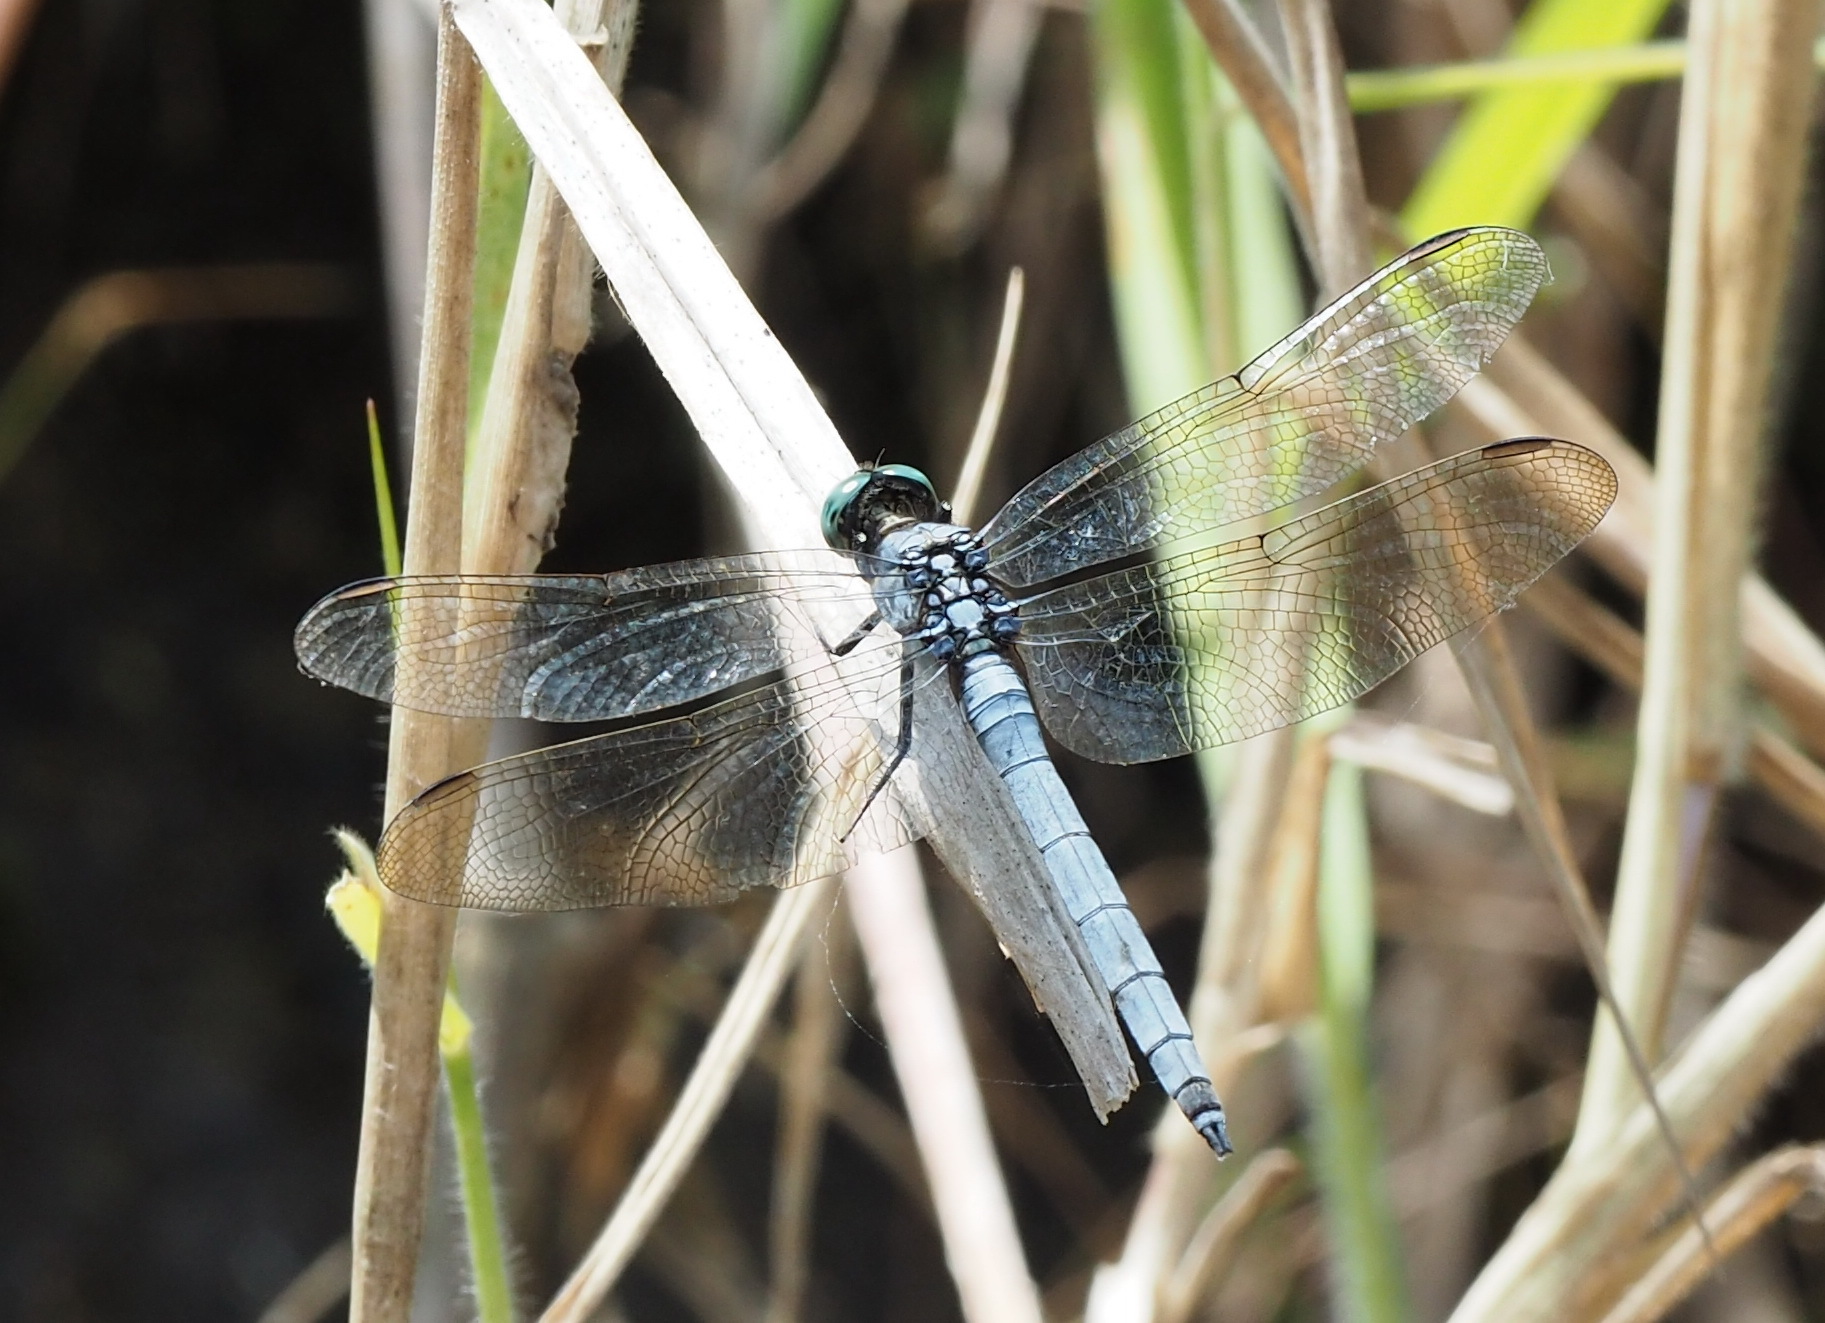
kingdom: Animalia
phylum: Arthropoda
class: Insecta
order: Odonata
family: Libellulidae
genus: Orthetrum
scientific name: Orthetrum luzonicum
